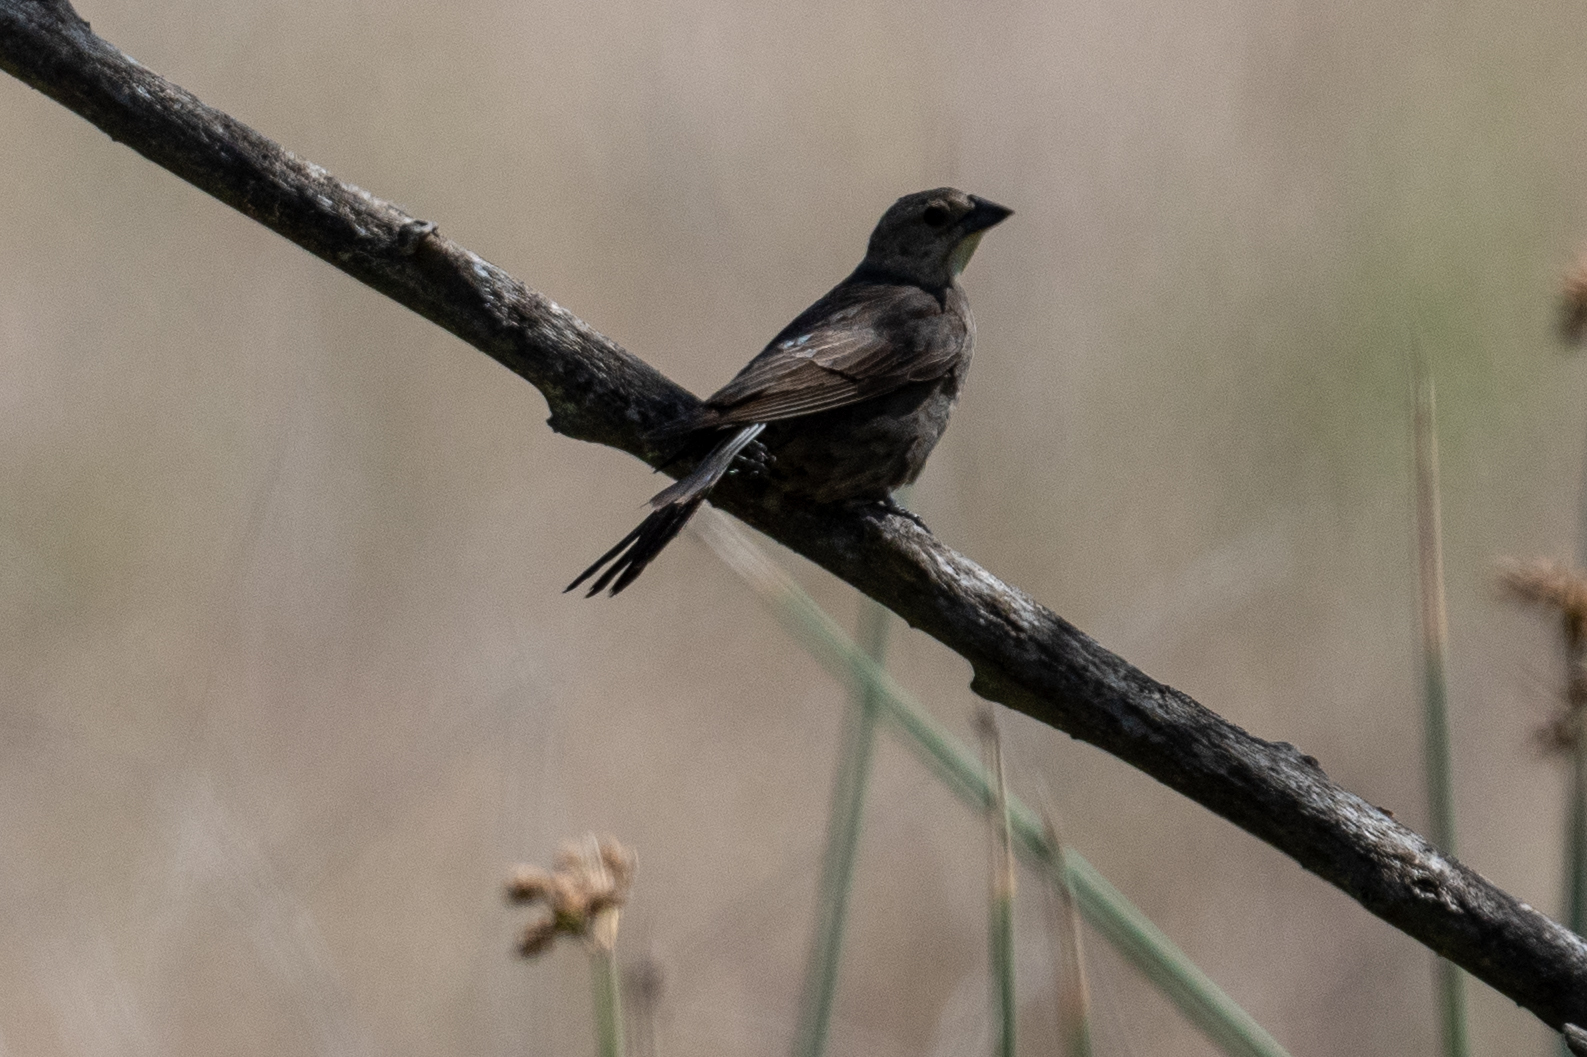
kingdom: Animalia
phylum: Chordata
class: Aves
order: Passeriformes
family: Icteridae
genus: Molothrus
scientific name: Molothrus ater
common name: Brown-headed cowbird
